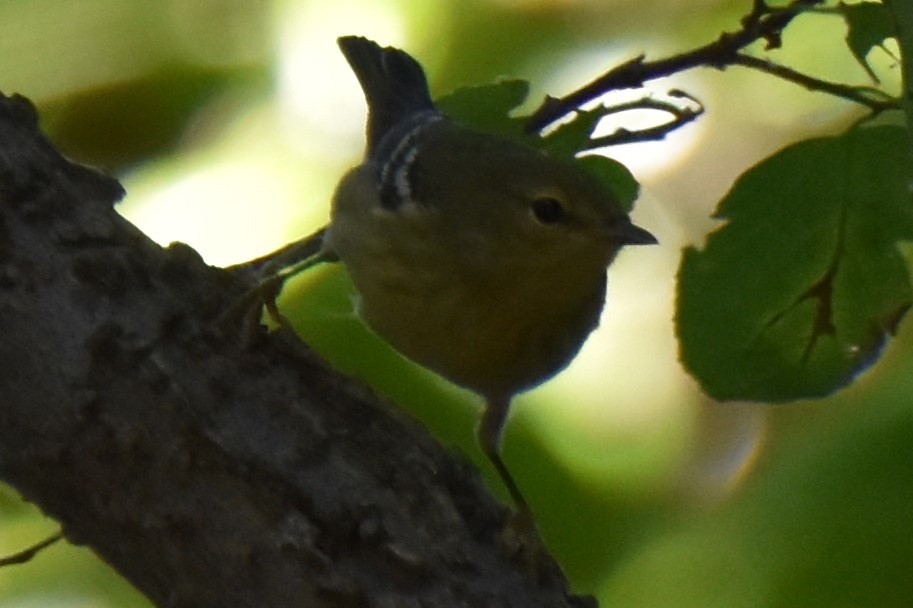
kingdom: Animalia
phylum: Chordata
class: Aves
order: Passeriformes
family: Parulidae
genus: Setophaga
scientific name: Setophaga striata
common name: Blackpoll warbler
